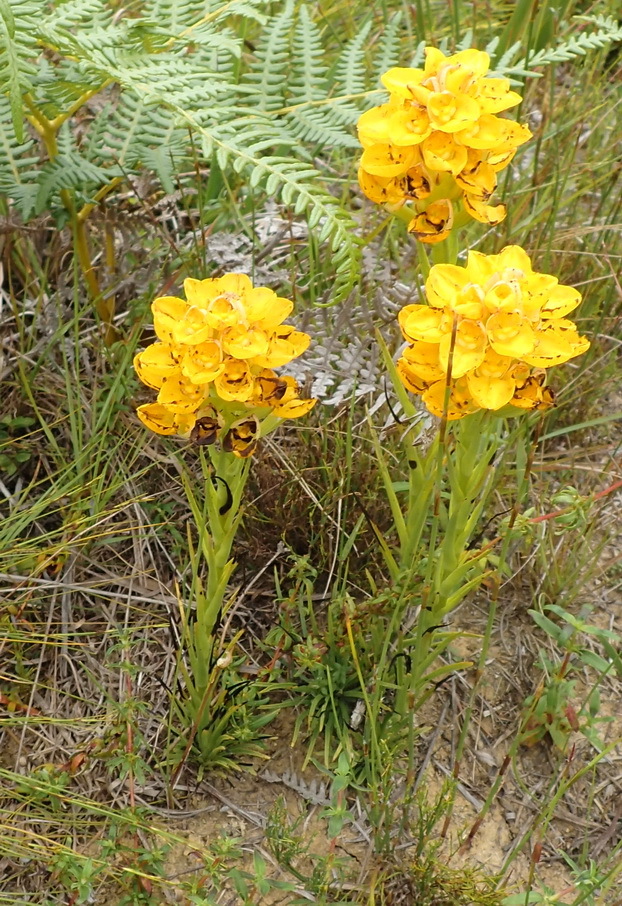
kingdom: Plantae
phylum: Tracheophyta
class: Liliopsida
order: Asparagales
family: Orchidaceae
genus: Ceratandra
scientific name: Ceratandra grandiflora
